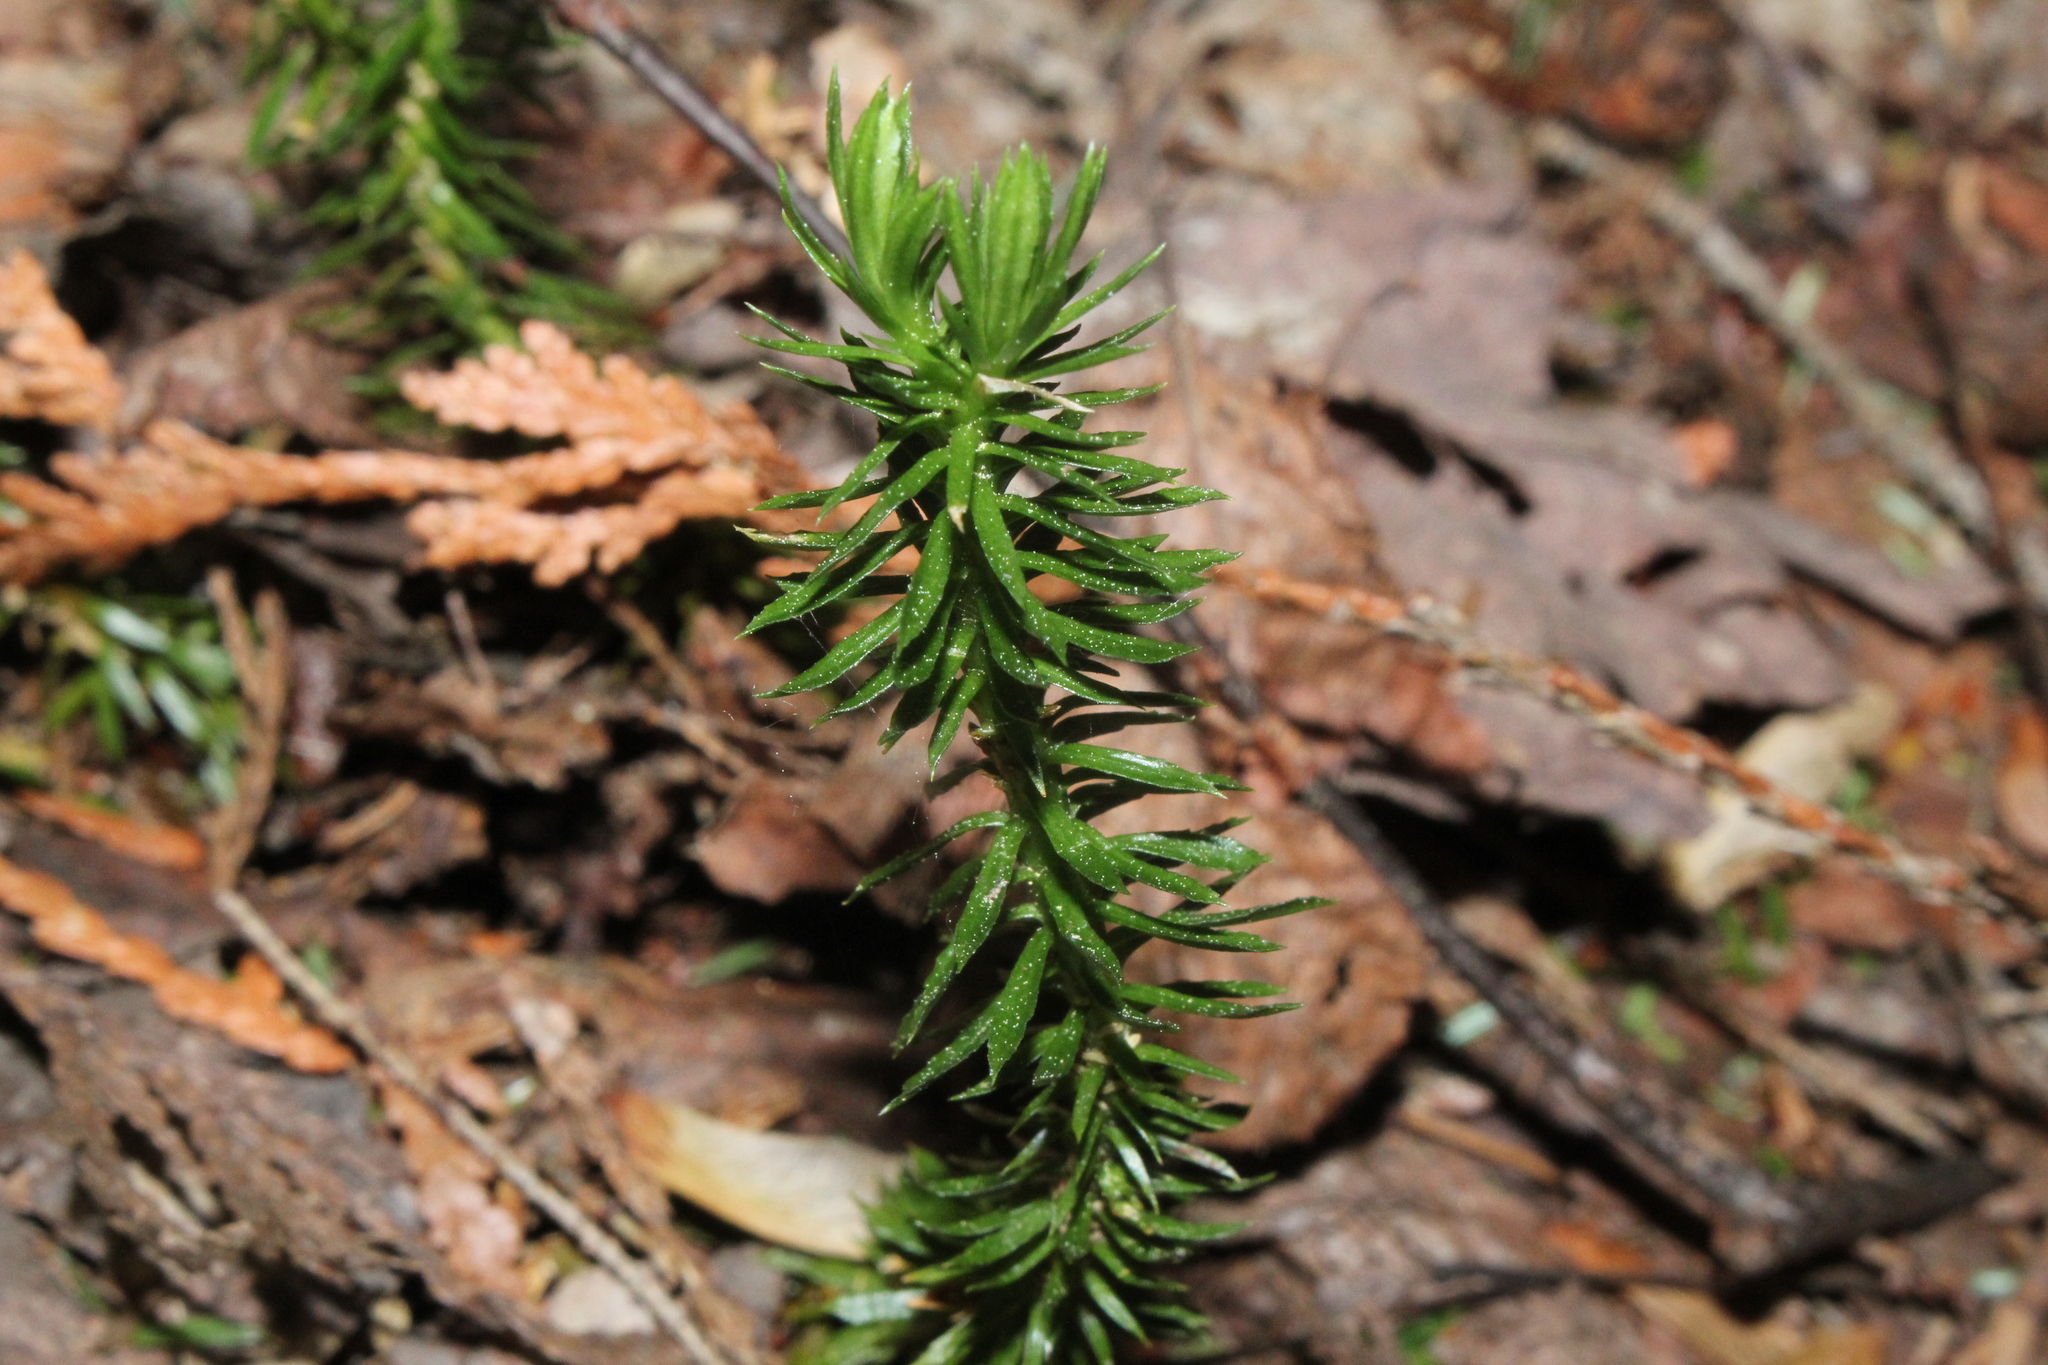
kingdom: Plantae
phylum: Tracheophyta
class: Lycopodiopsida
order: Lycopodiales
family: Lycopodiaceae
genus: Huperzia
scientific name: Huperzia lucidula
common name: Shining clubmoss
